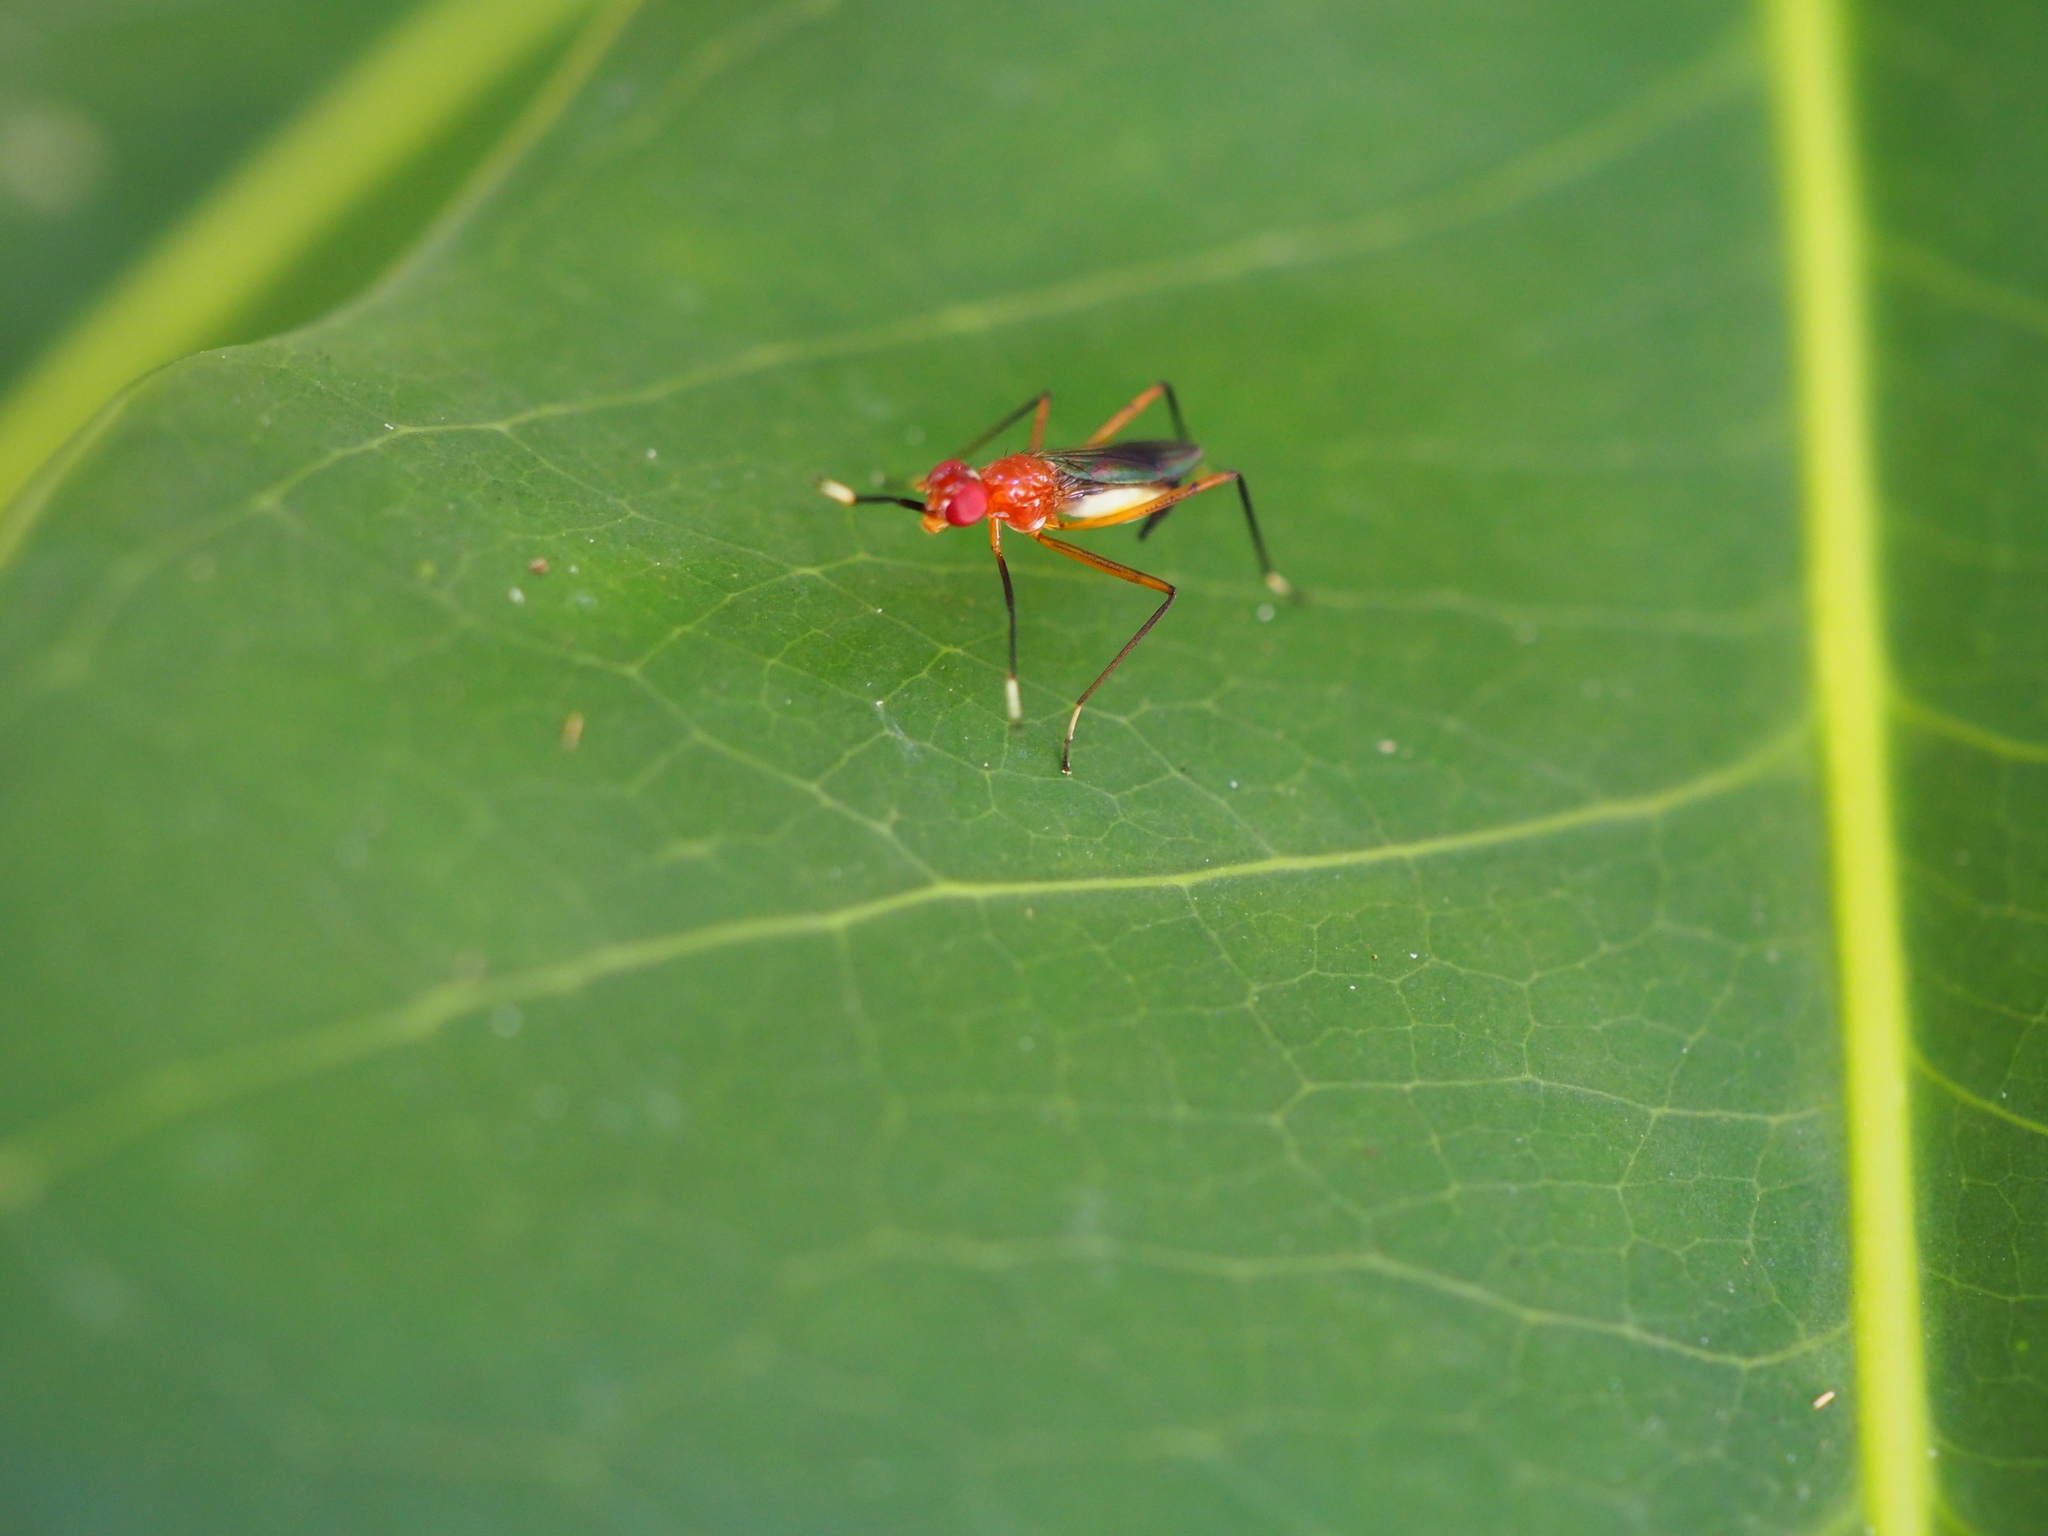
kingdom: Animalia
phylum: Arthropoda
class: Insecta
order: Diptera
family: Micropezidae
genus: Grallipeza
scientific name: Grallipeza nebulosa
